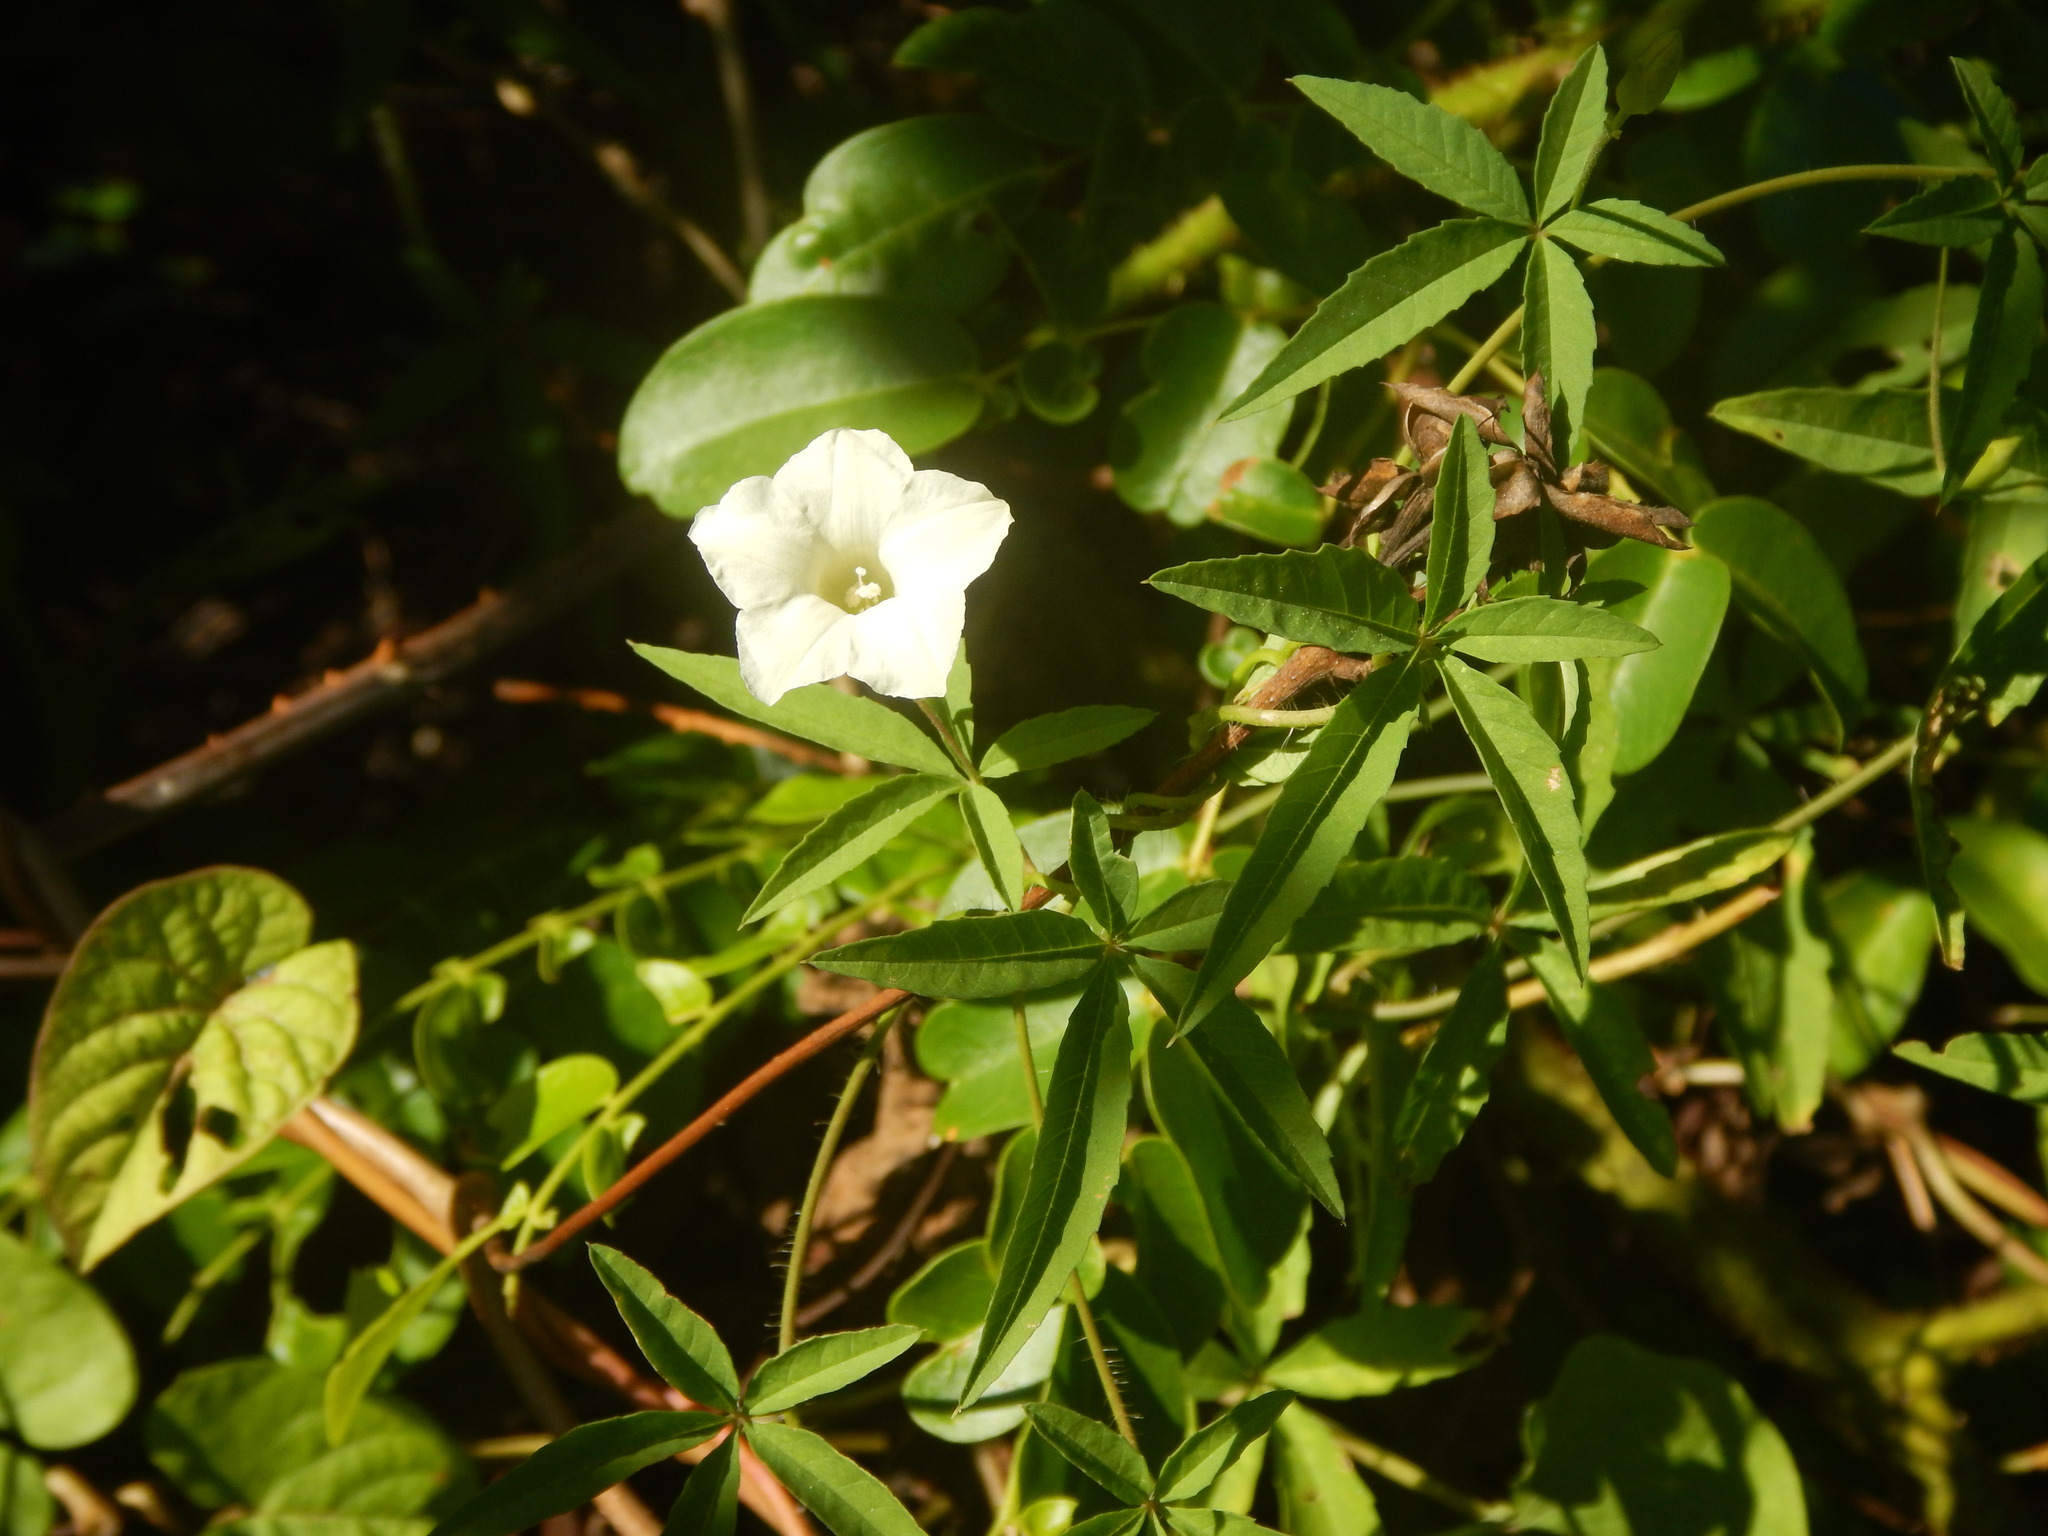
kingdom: Plantae
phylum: Tracheophyta
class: Magnoliopsida
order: Solanales
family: Convolvulaceae
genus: Distimake
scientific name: Distimake quinquefolius
